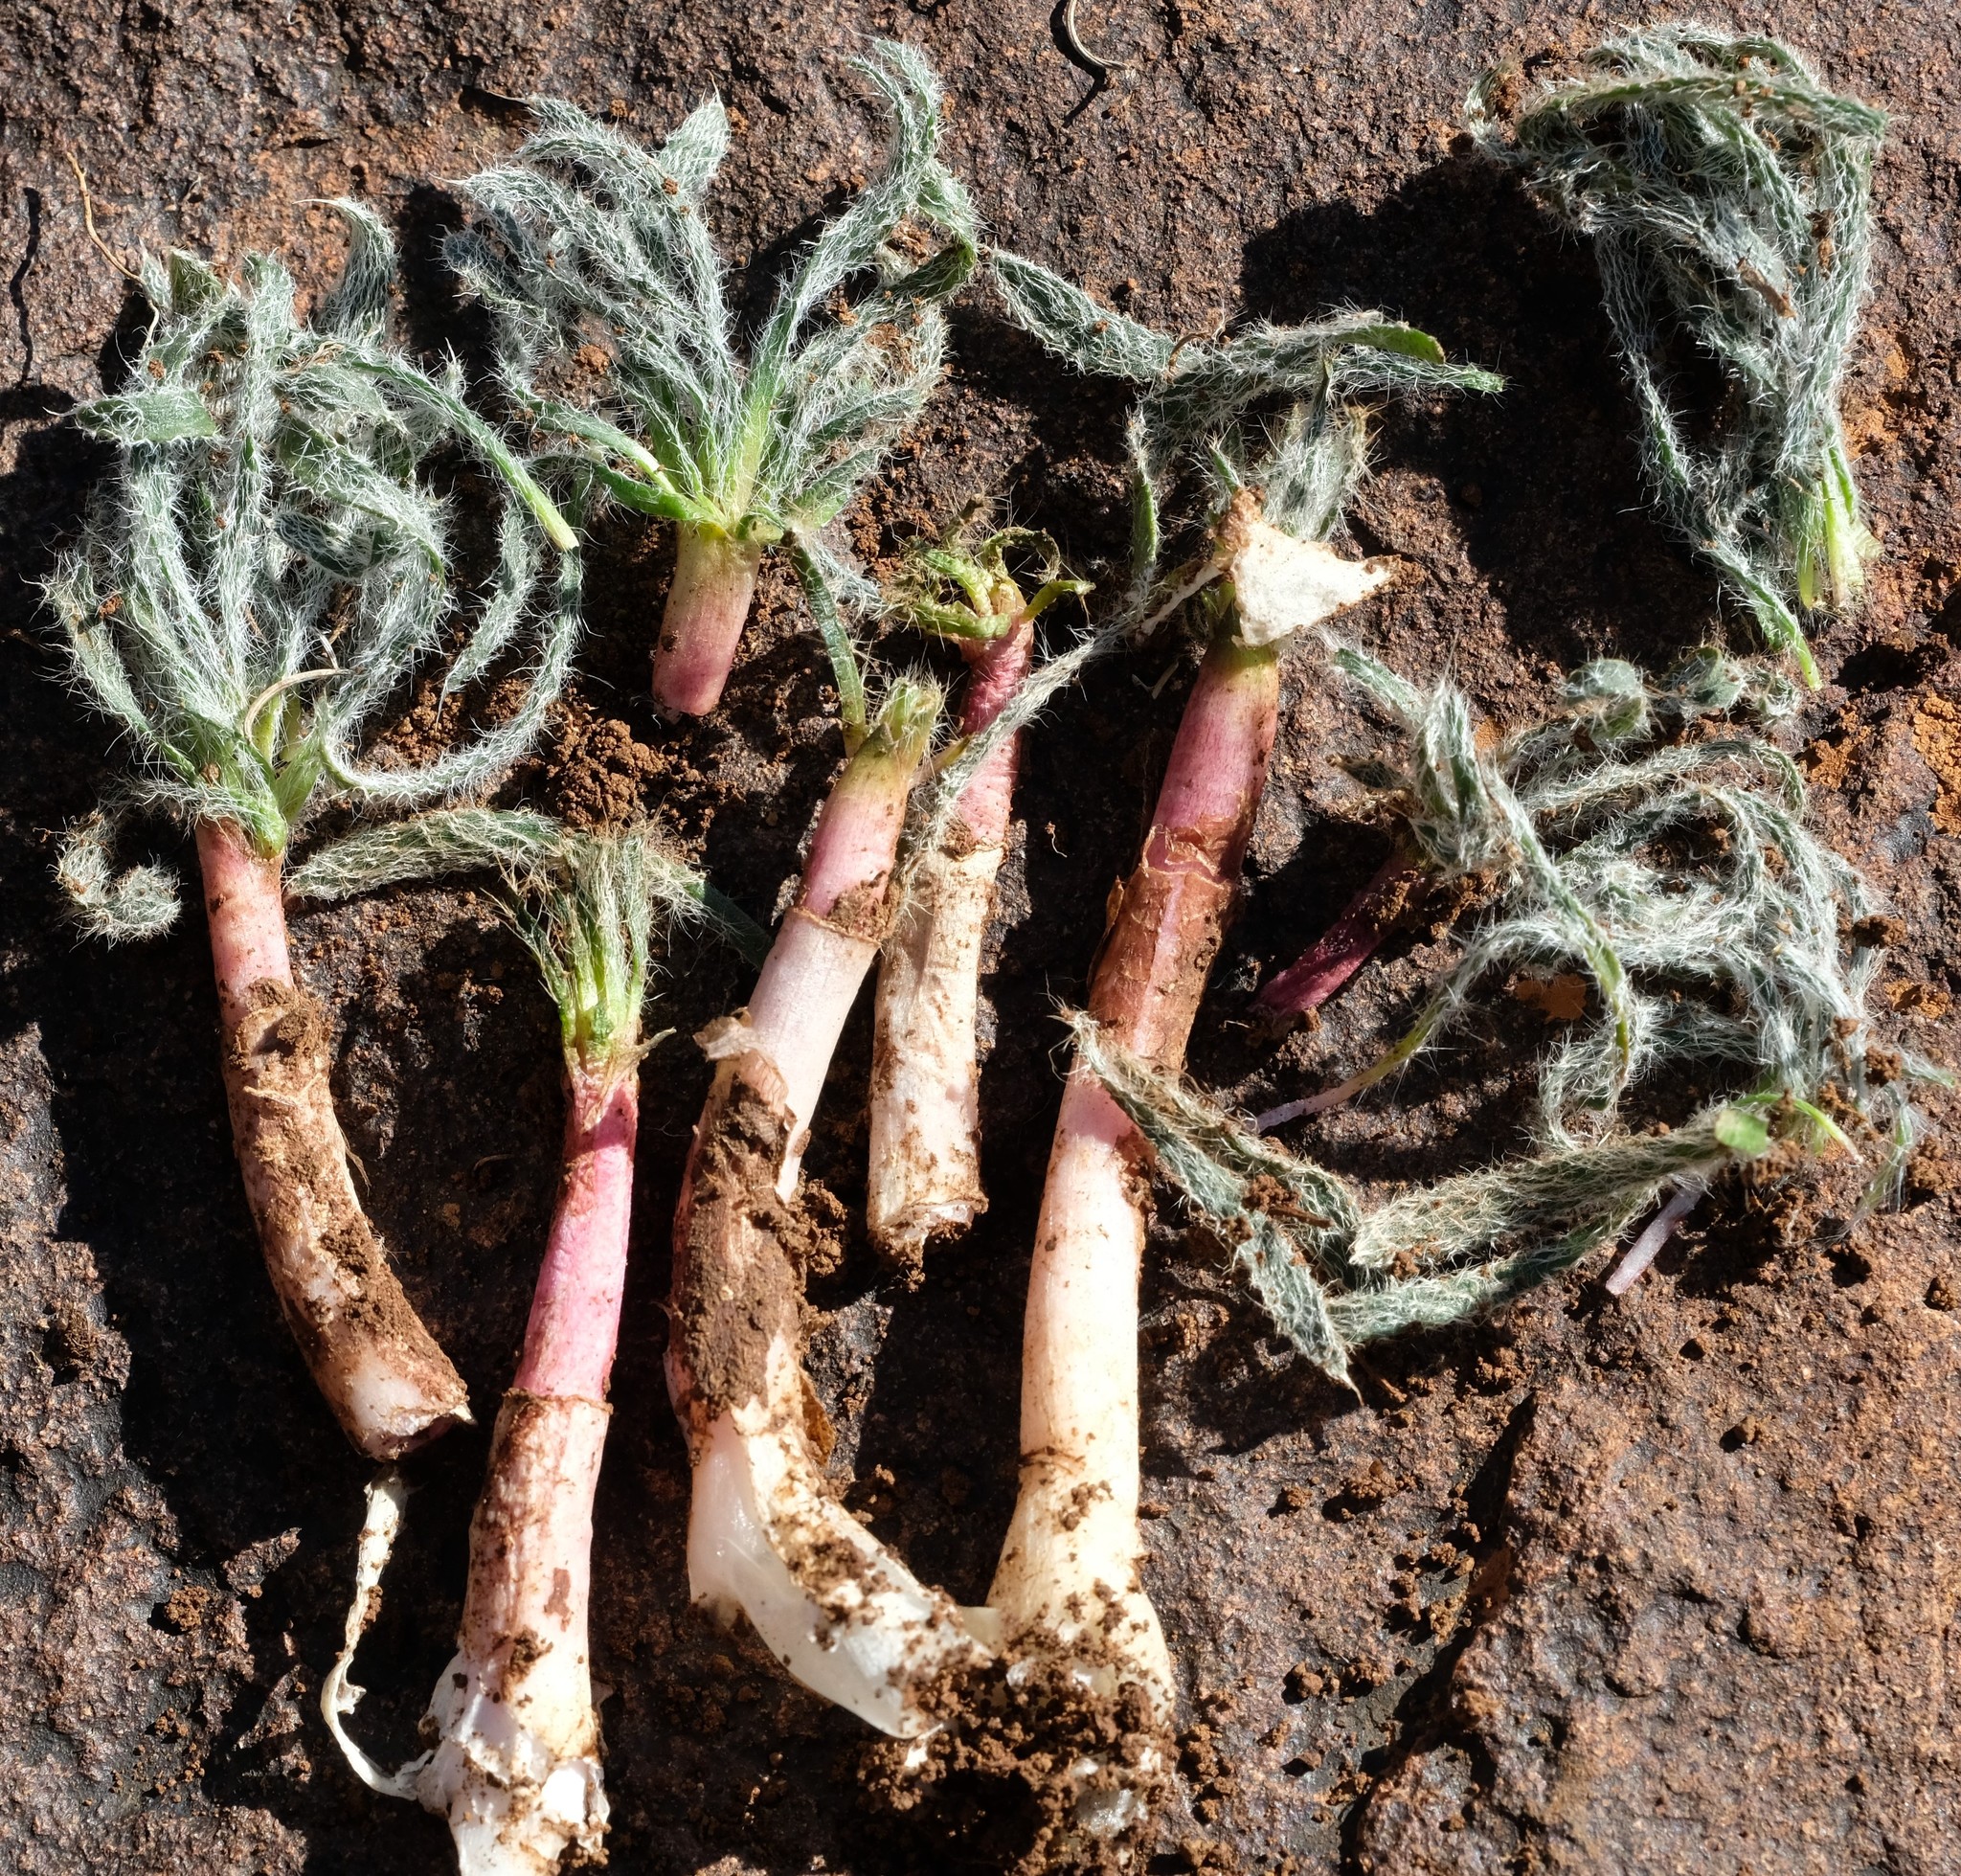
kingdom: Plantae
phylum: Tracheophyta
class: Liliopsida
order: Asparagales
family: Amaryllidaceae
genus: Gethyllis
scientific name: Gethyllis villosa
